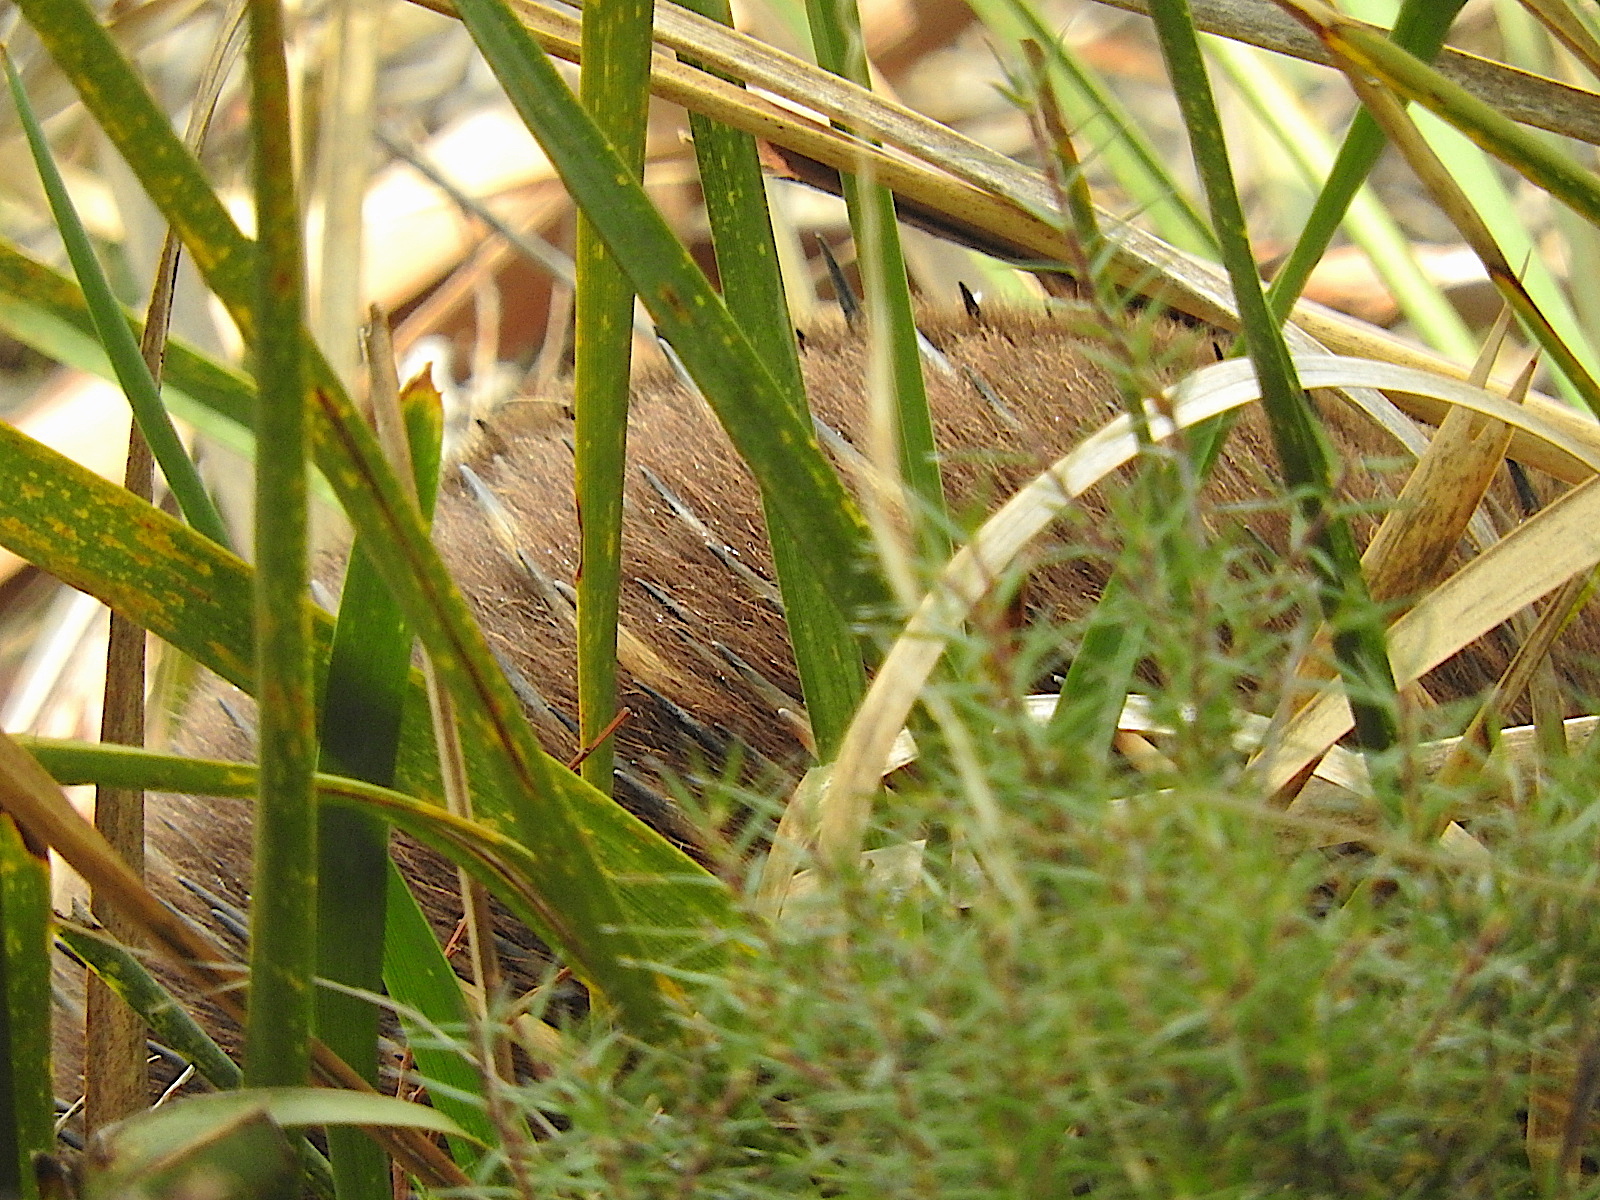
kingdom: Animalia
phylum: Chordata
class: Mammalia
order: Monotremata
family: Tachyglossidae
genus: Tachyglossus
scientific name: Tachyglossus aculeatus
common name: Short-beaked echidna
